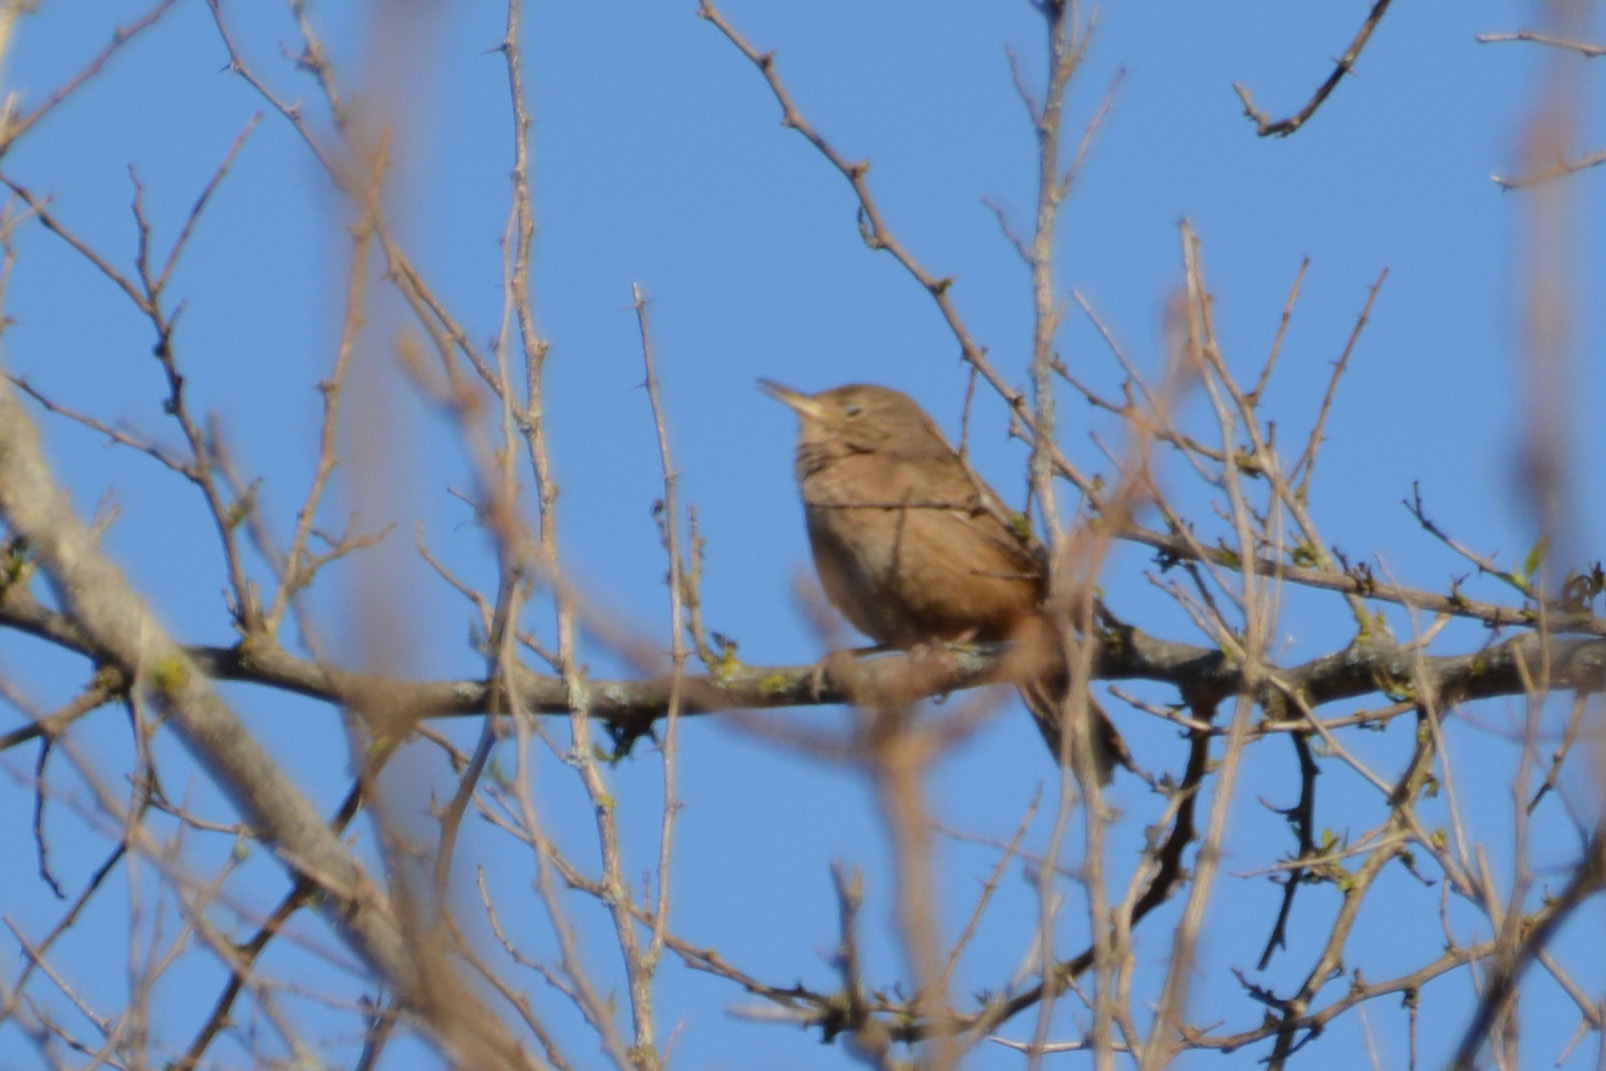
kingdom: Animalia
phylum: Chordata
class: Aves
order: Passeriformes
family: Troglodytidae
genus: Troglodytes
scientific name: Troglodytes aedon
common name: House wren
